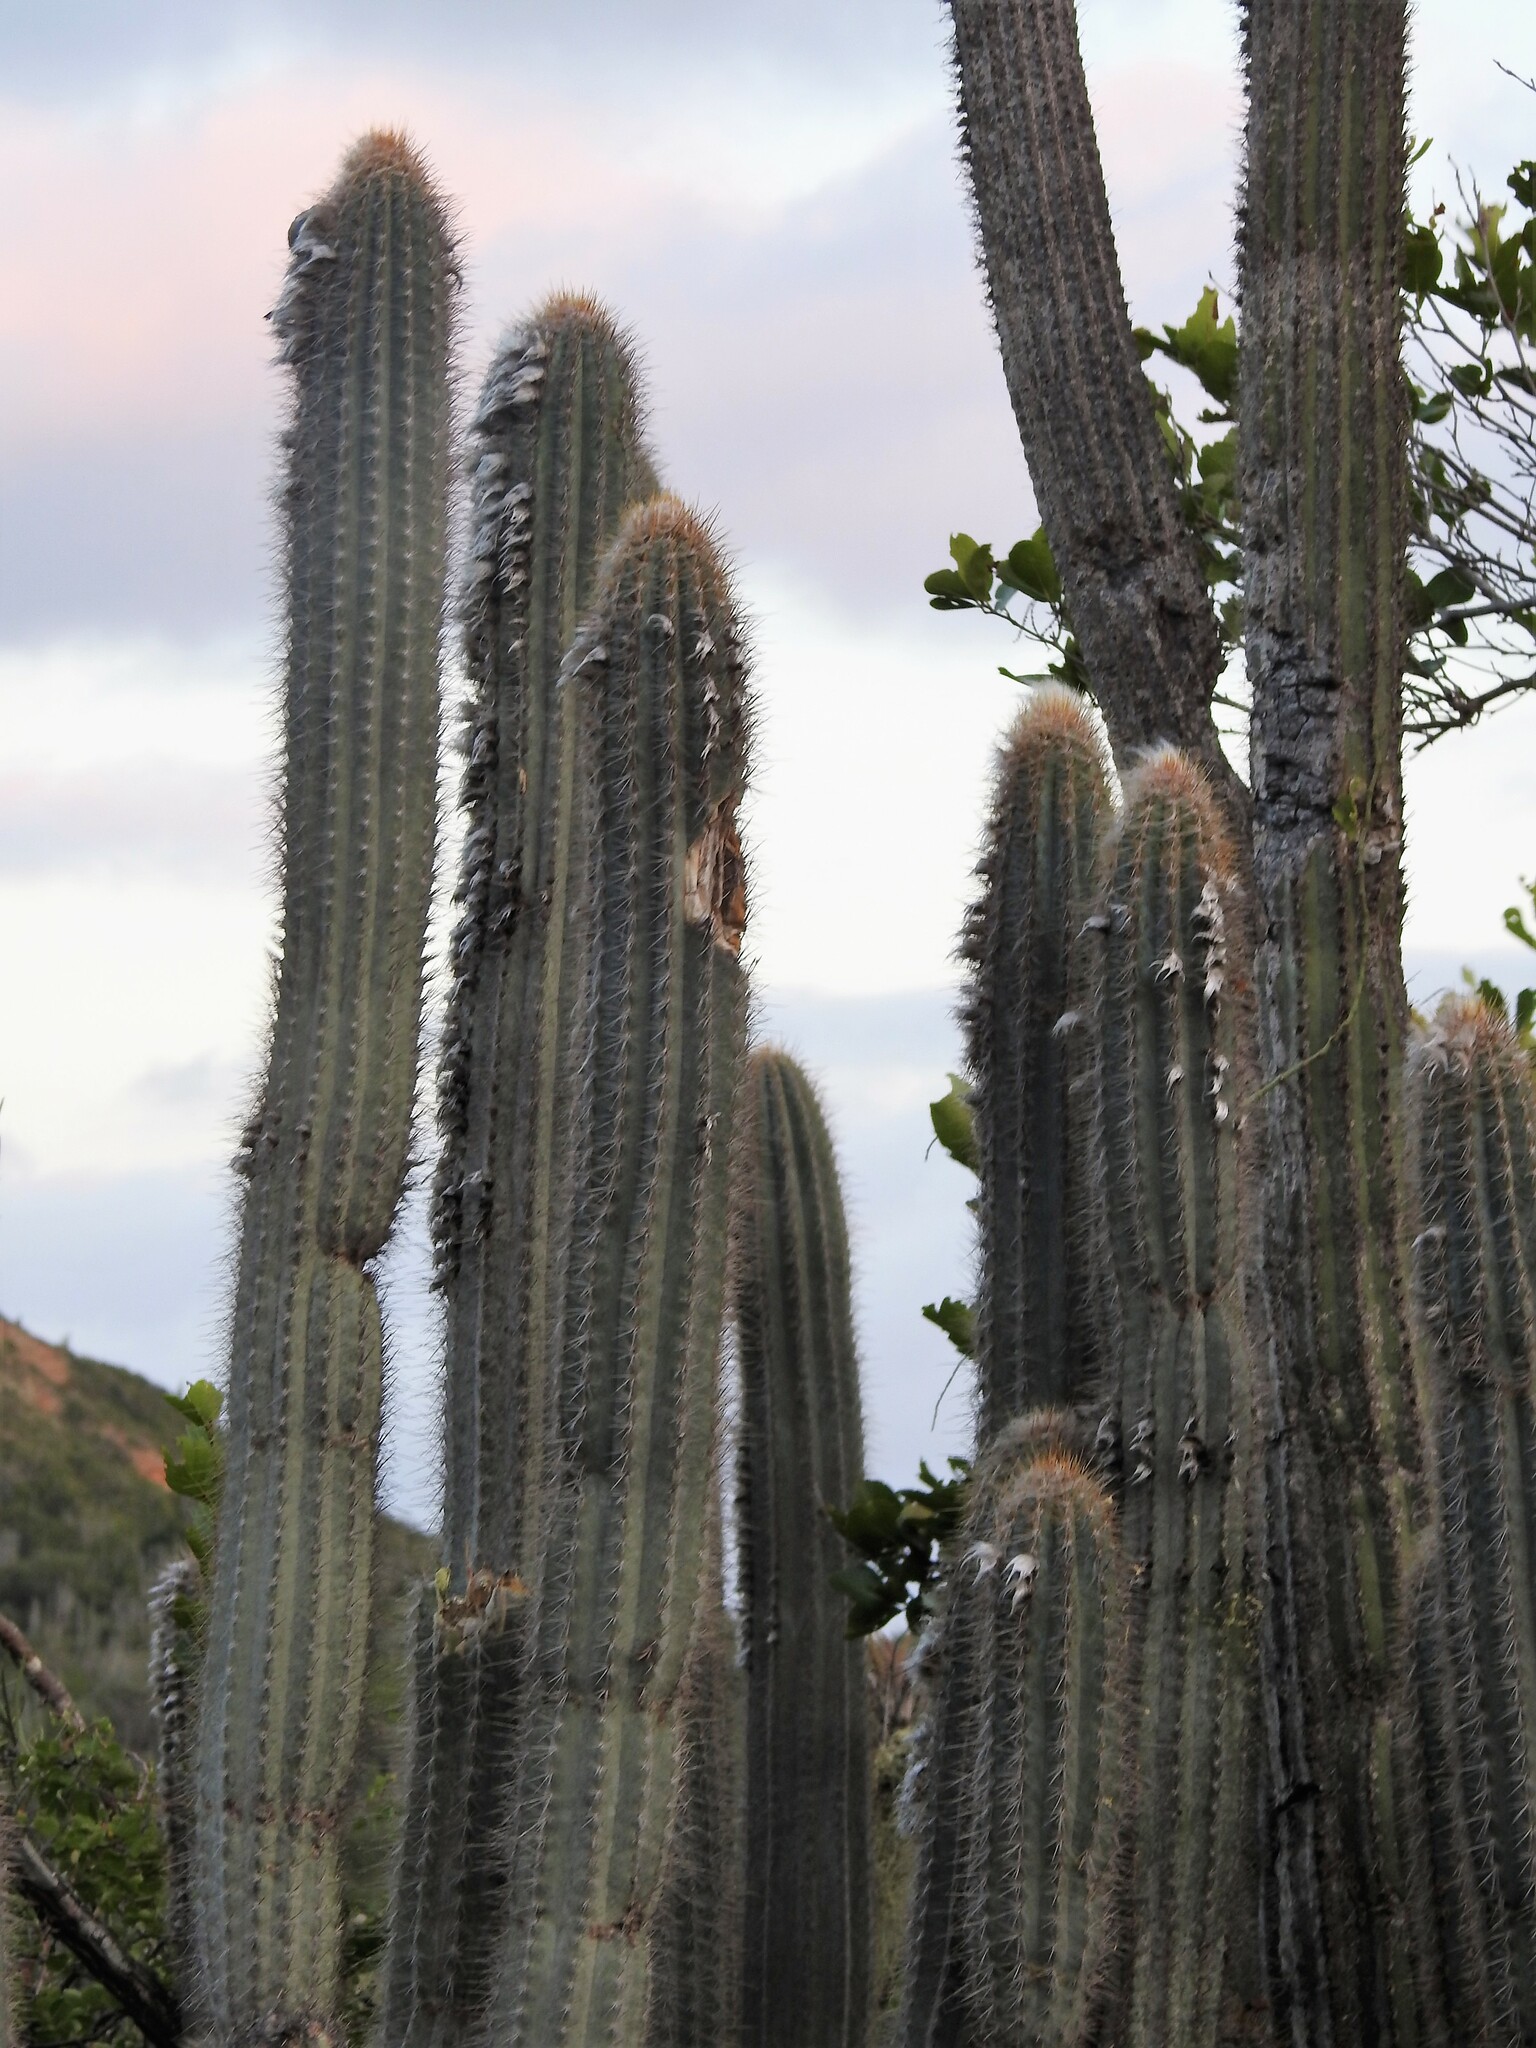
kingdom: Plantae
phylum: Tracheophyta
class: Magnoliopsida
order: Caryophyllales
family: Cactaceae
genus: Pilosocereus
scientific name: Pilosocereus lanuginosus
